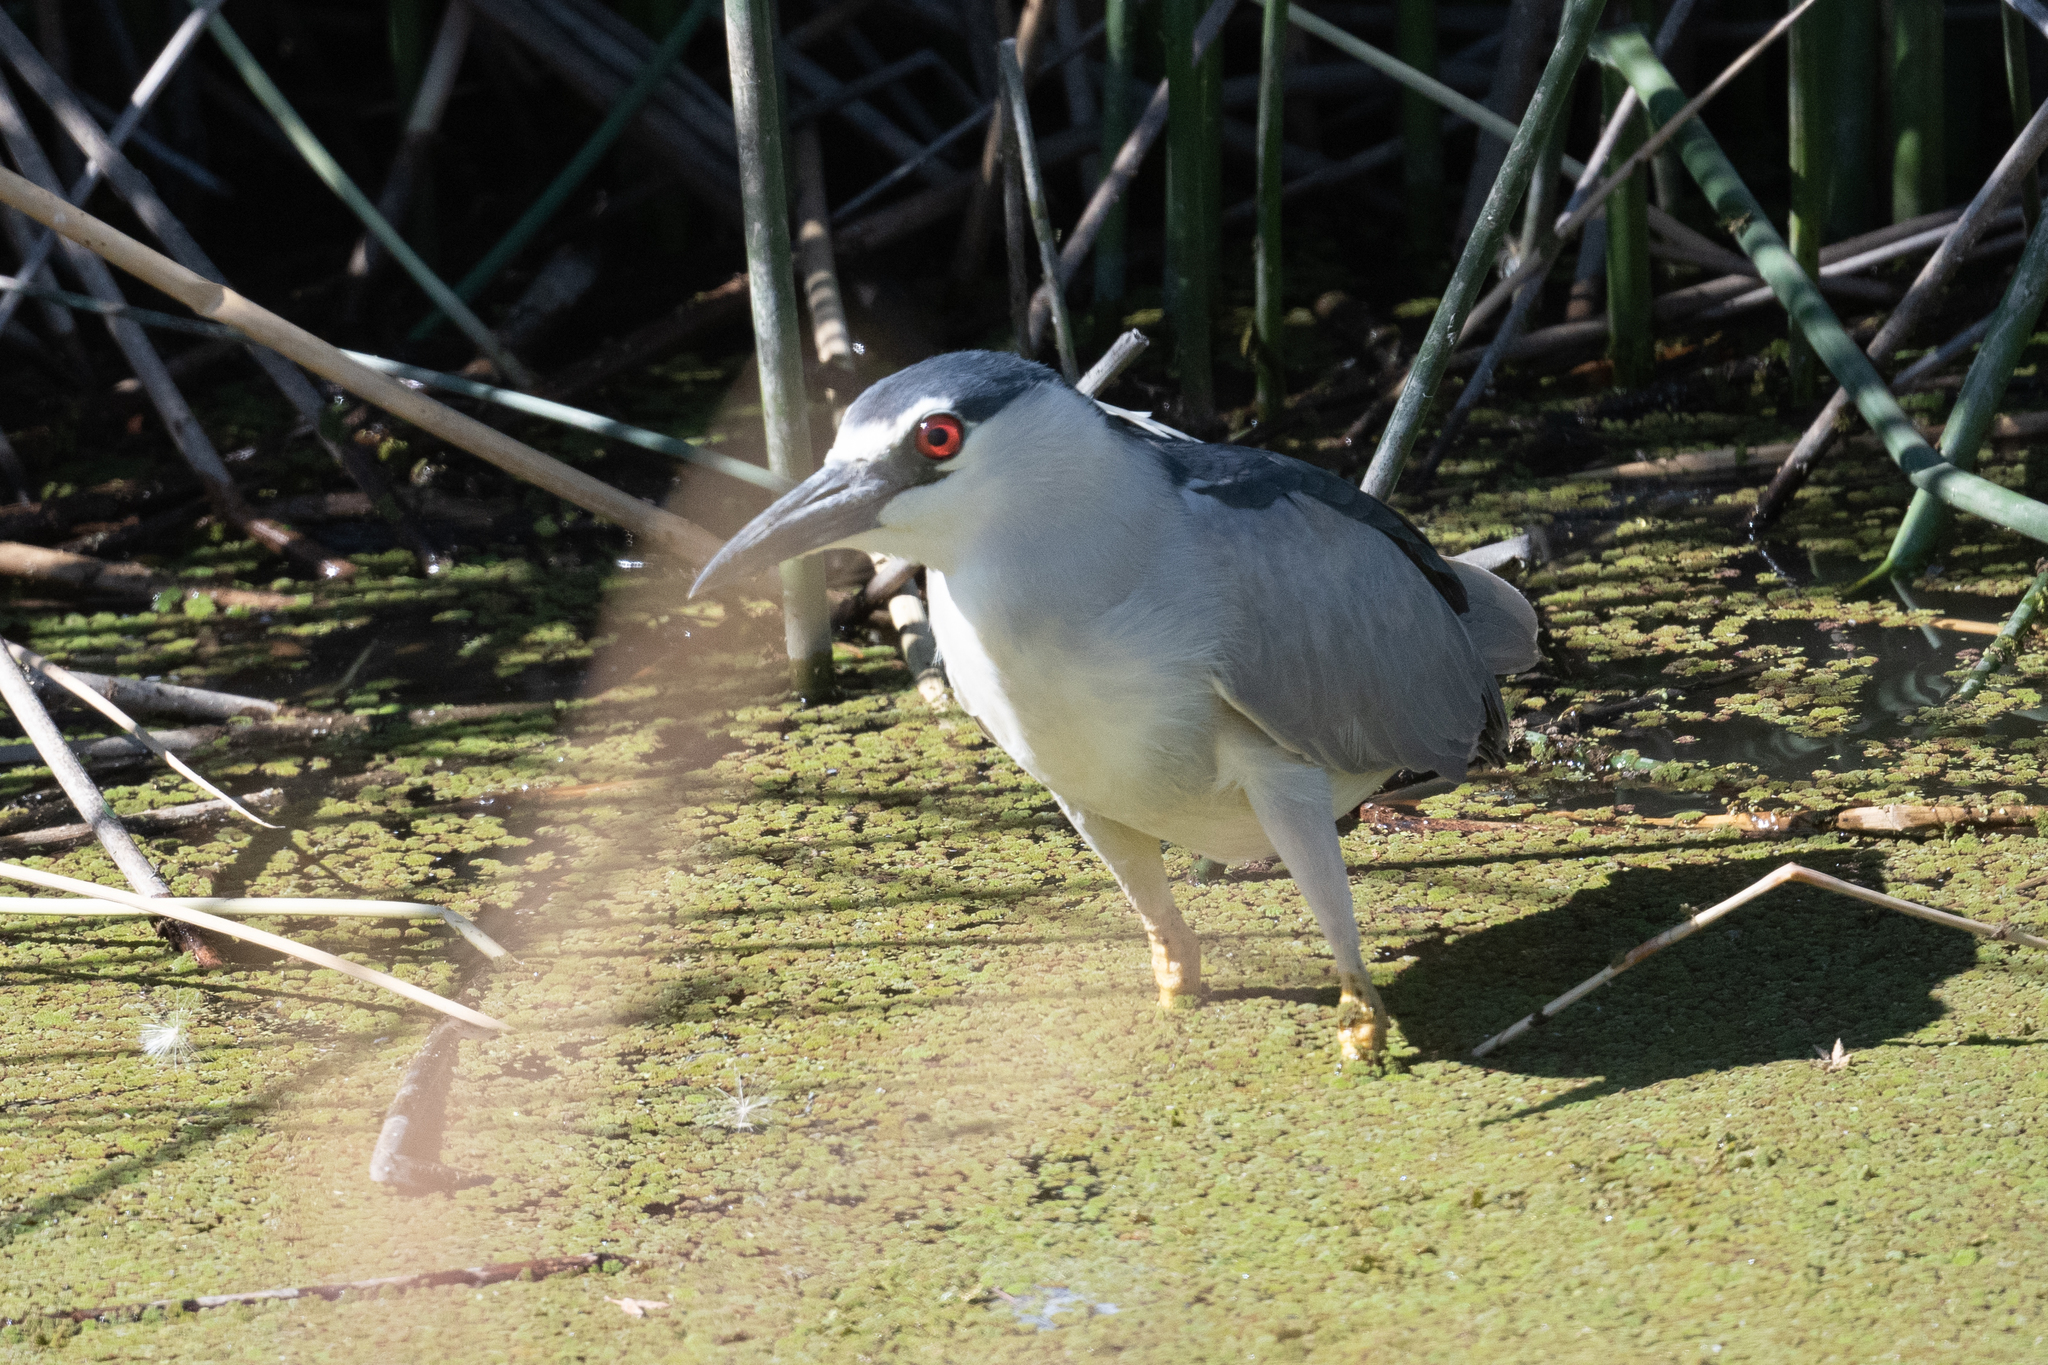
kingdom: Animalia
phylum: Chordata
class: Aves
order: Pelecaniformes
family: Ardeidae
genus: Nycticorax
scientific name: Nycticorax nycticorax
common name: Black-crowned night heron
